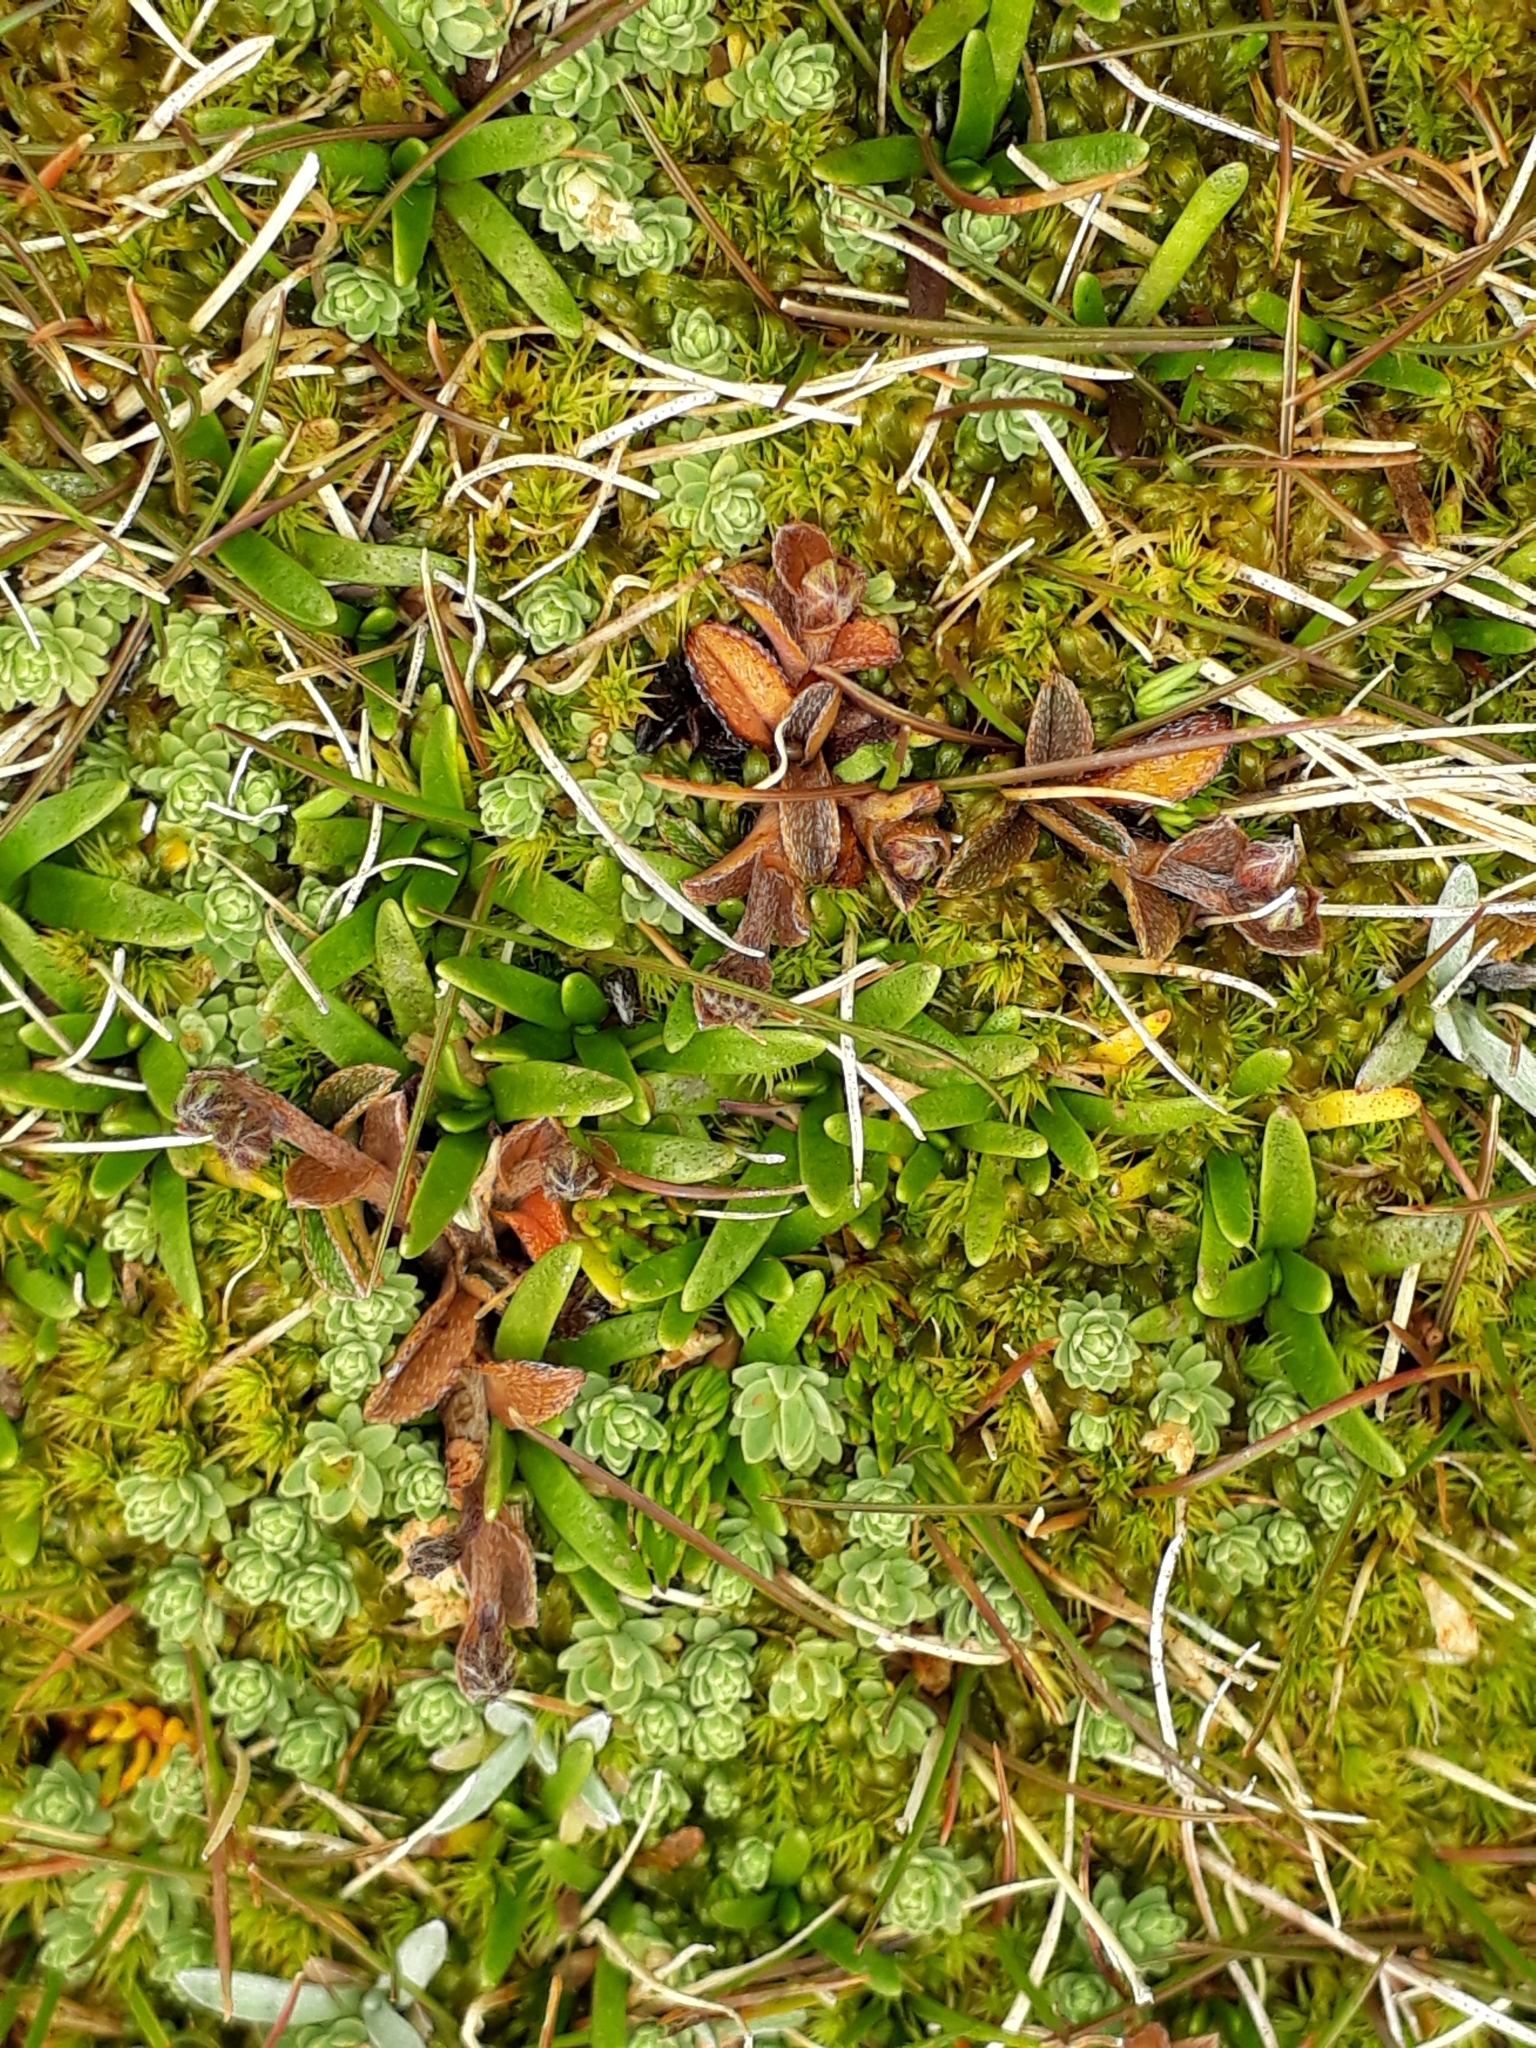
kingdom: Plantae
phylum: Tracheophyta
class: Magnoliopsida
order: Boraginales
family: Boraginaceae
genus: Myosotis
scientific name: Myosotis bryonoma
